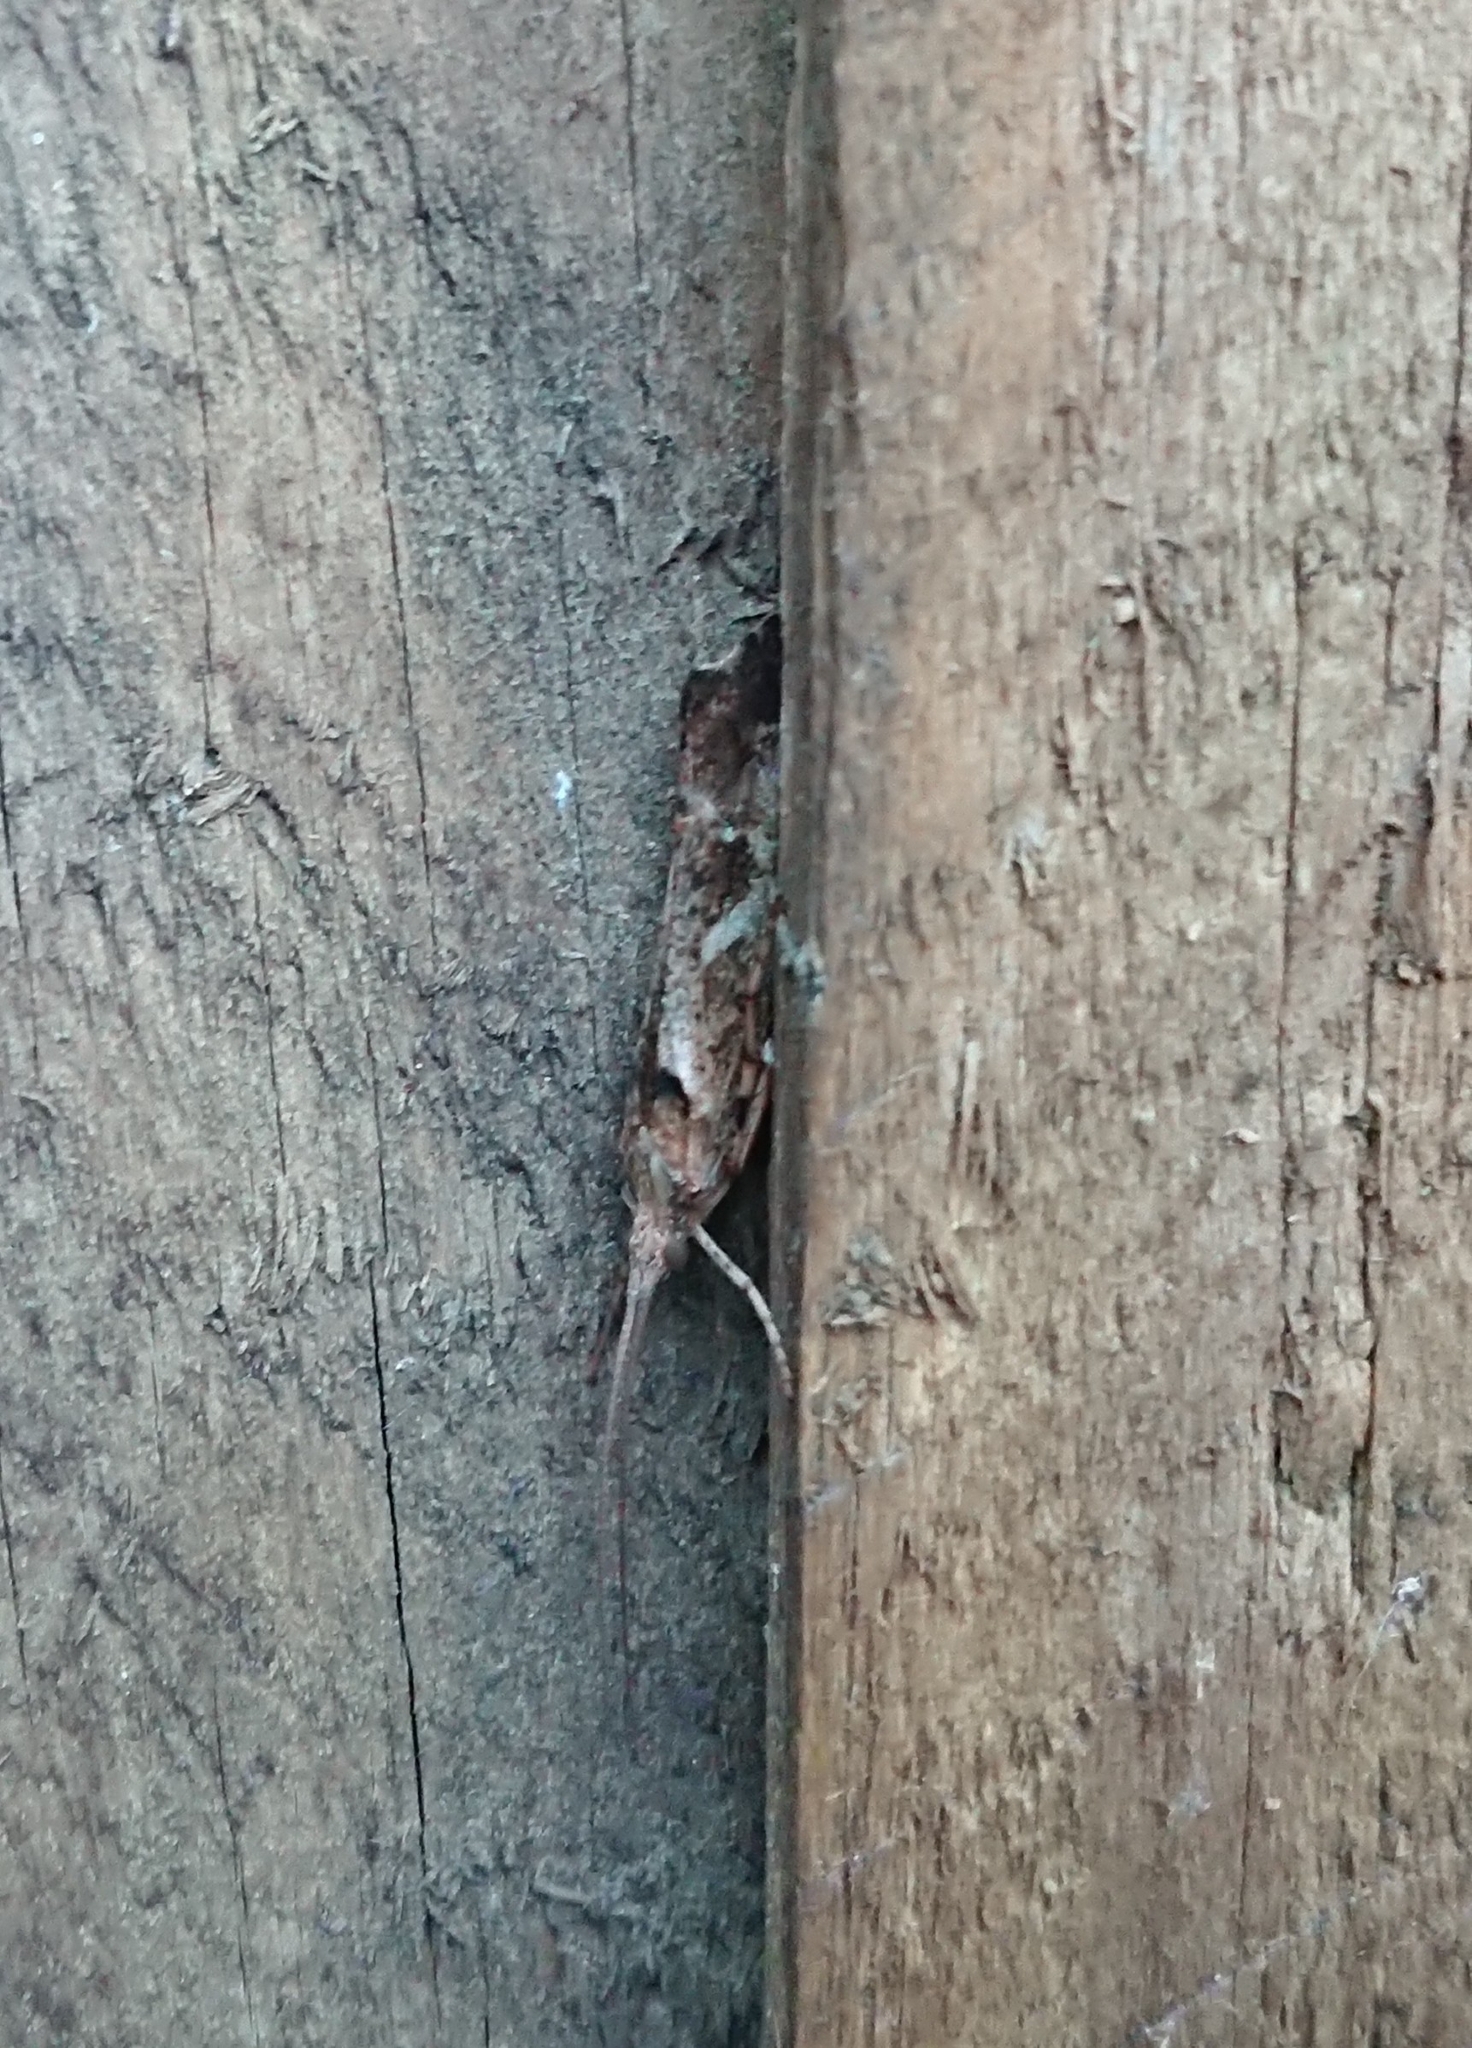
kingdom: Animalia
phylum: Arthropoda
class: Insecta
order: Trichoptera
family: Limnephilidae
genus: Glyphotaelius
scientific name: Glyphotaelius pellucidus
